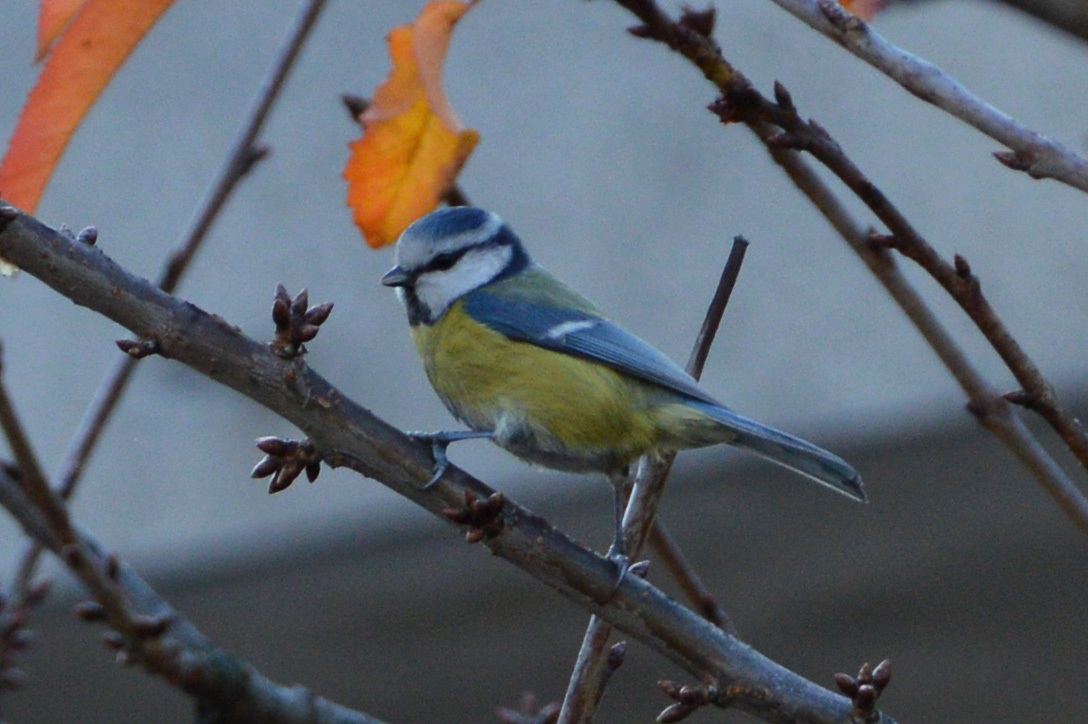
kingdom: Animalia
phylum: Chordata
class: Aves
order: Passeriformes
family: Paridae
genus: Cyanistes
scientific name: Cyanistes caeruleus
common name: Eurasian blue tit
